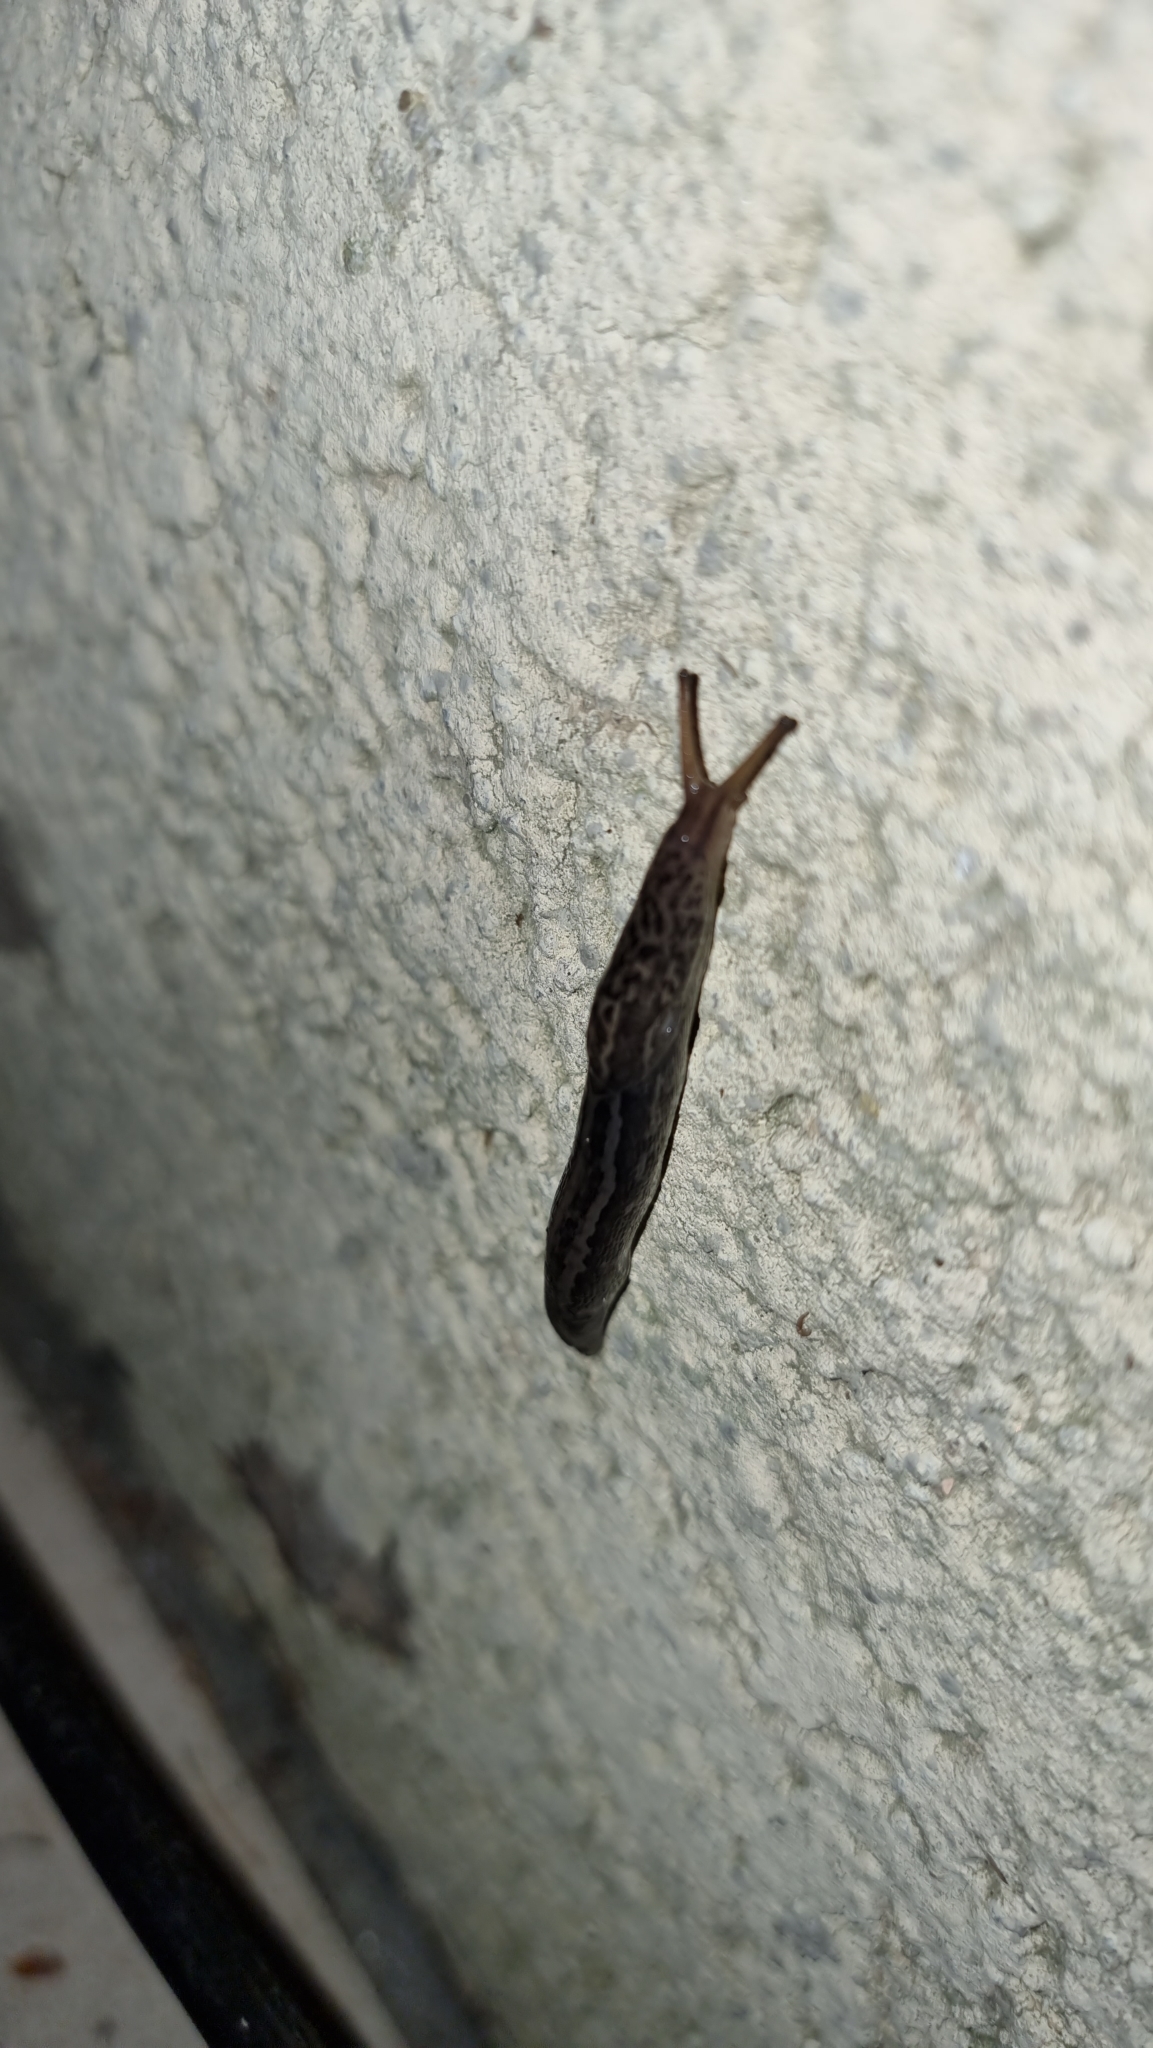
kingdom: Animalia
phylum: Mollusca
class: Gastropoda
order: Stylommatophora
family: Limacidae
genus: Limax
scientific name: Limax maximus
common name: Great grey slug
